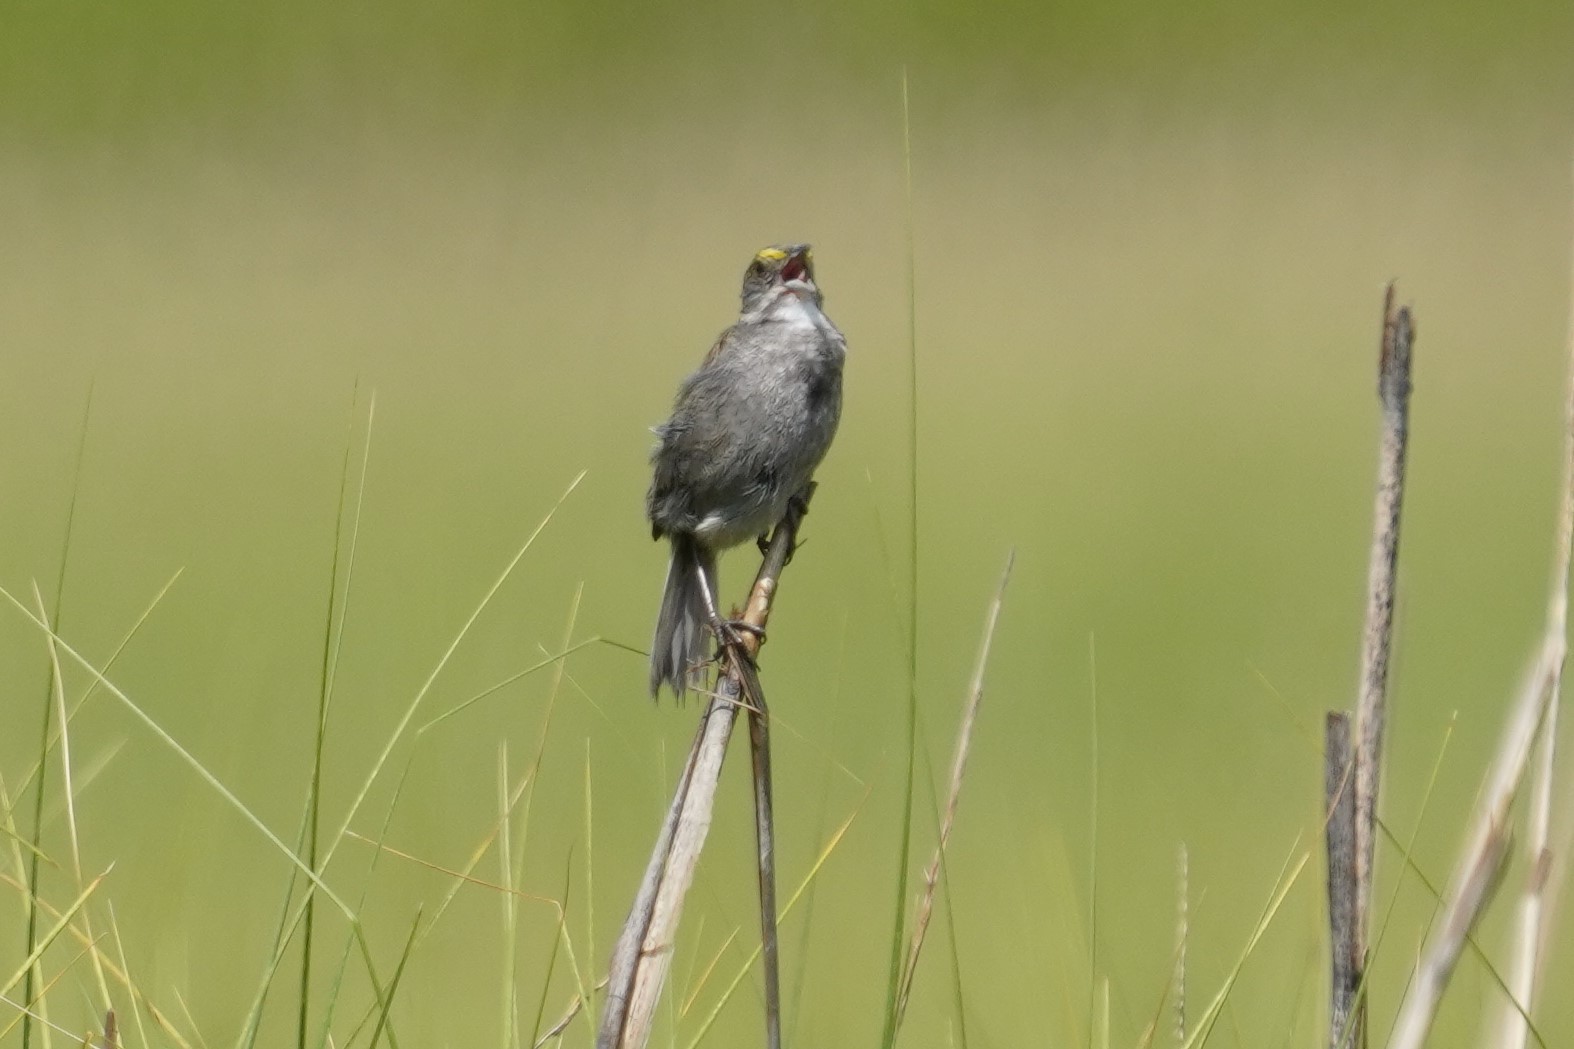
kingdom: Animalia
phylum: Chordata
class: Aves
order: Passeriformes
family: Passerellidae
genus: Ammospiza
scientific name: Ammospiza maritima
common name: Seaside sparrow
